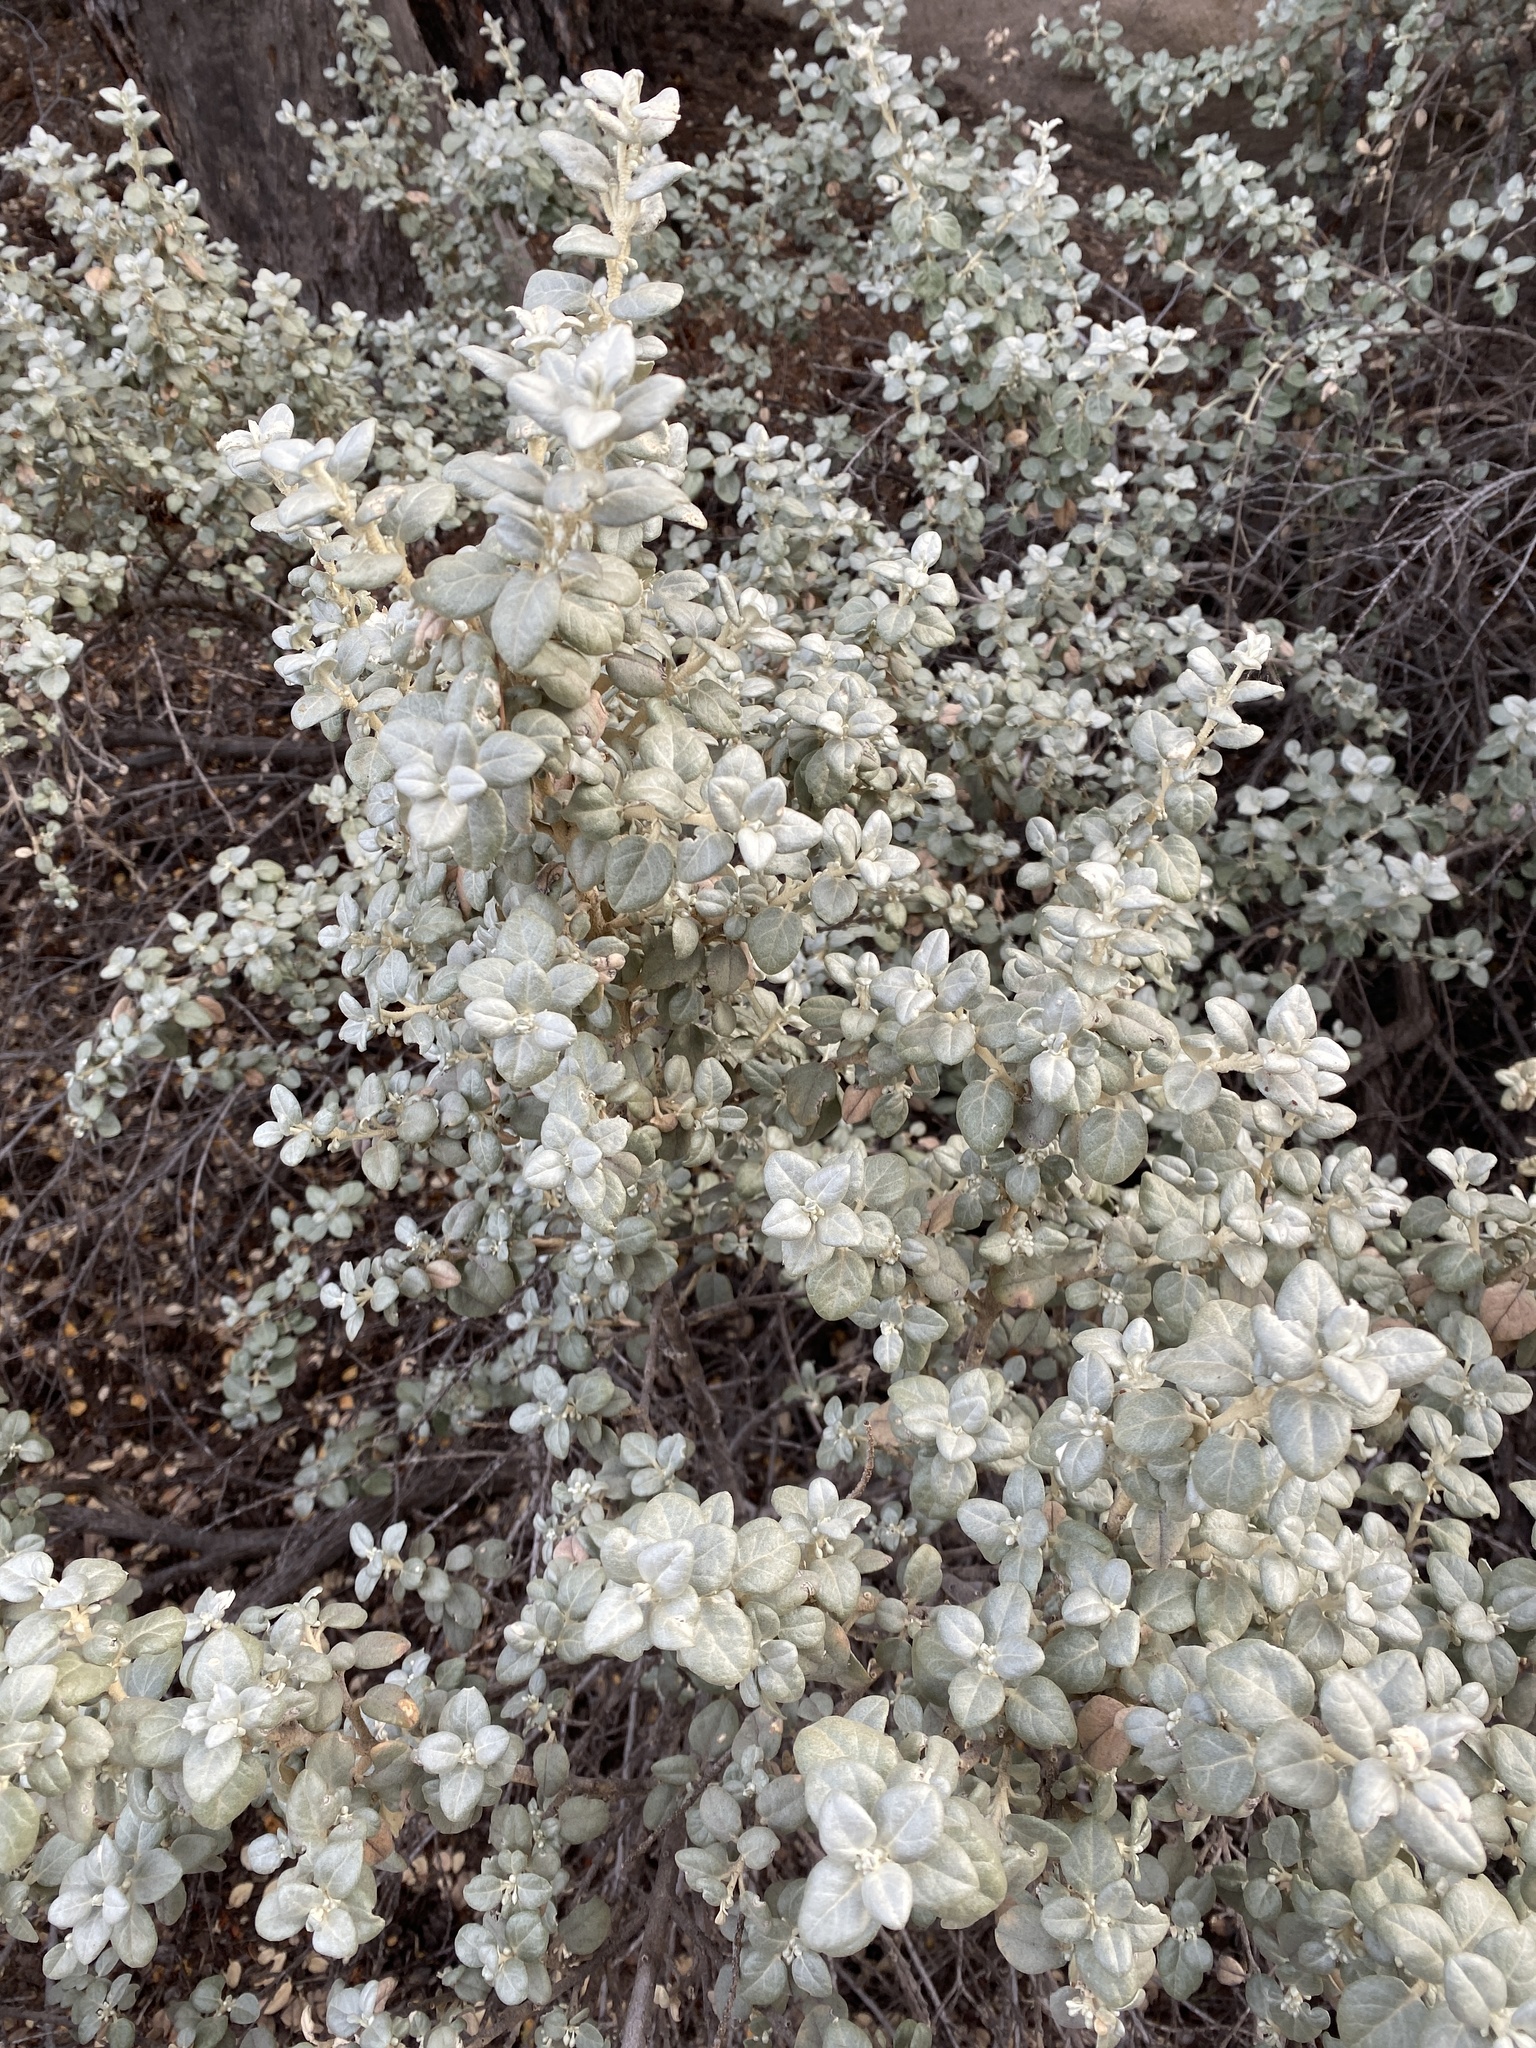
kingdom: Plantae
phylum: Tracheophyta
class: Magnoliopsida
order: Rosales
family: Elaeagnaceae
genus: Shepherdia
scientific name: Shepherdia rotundifolia
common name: Silverscale
